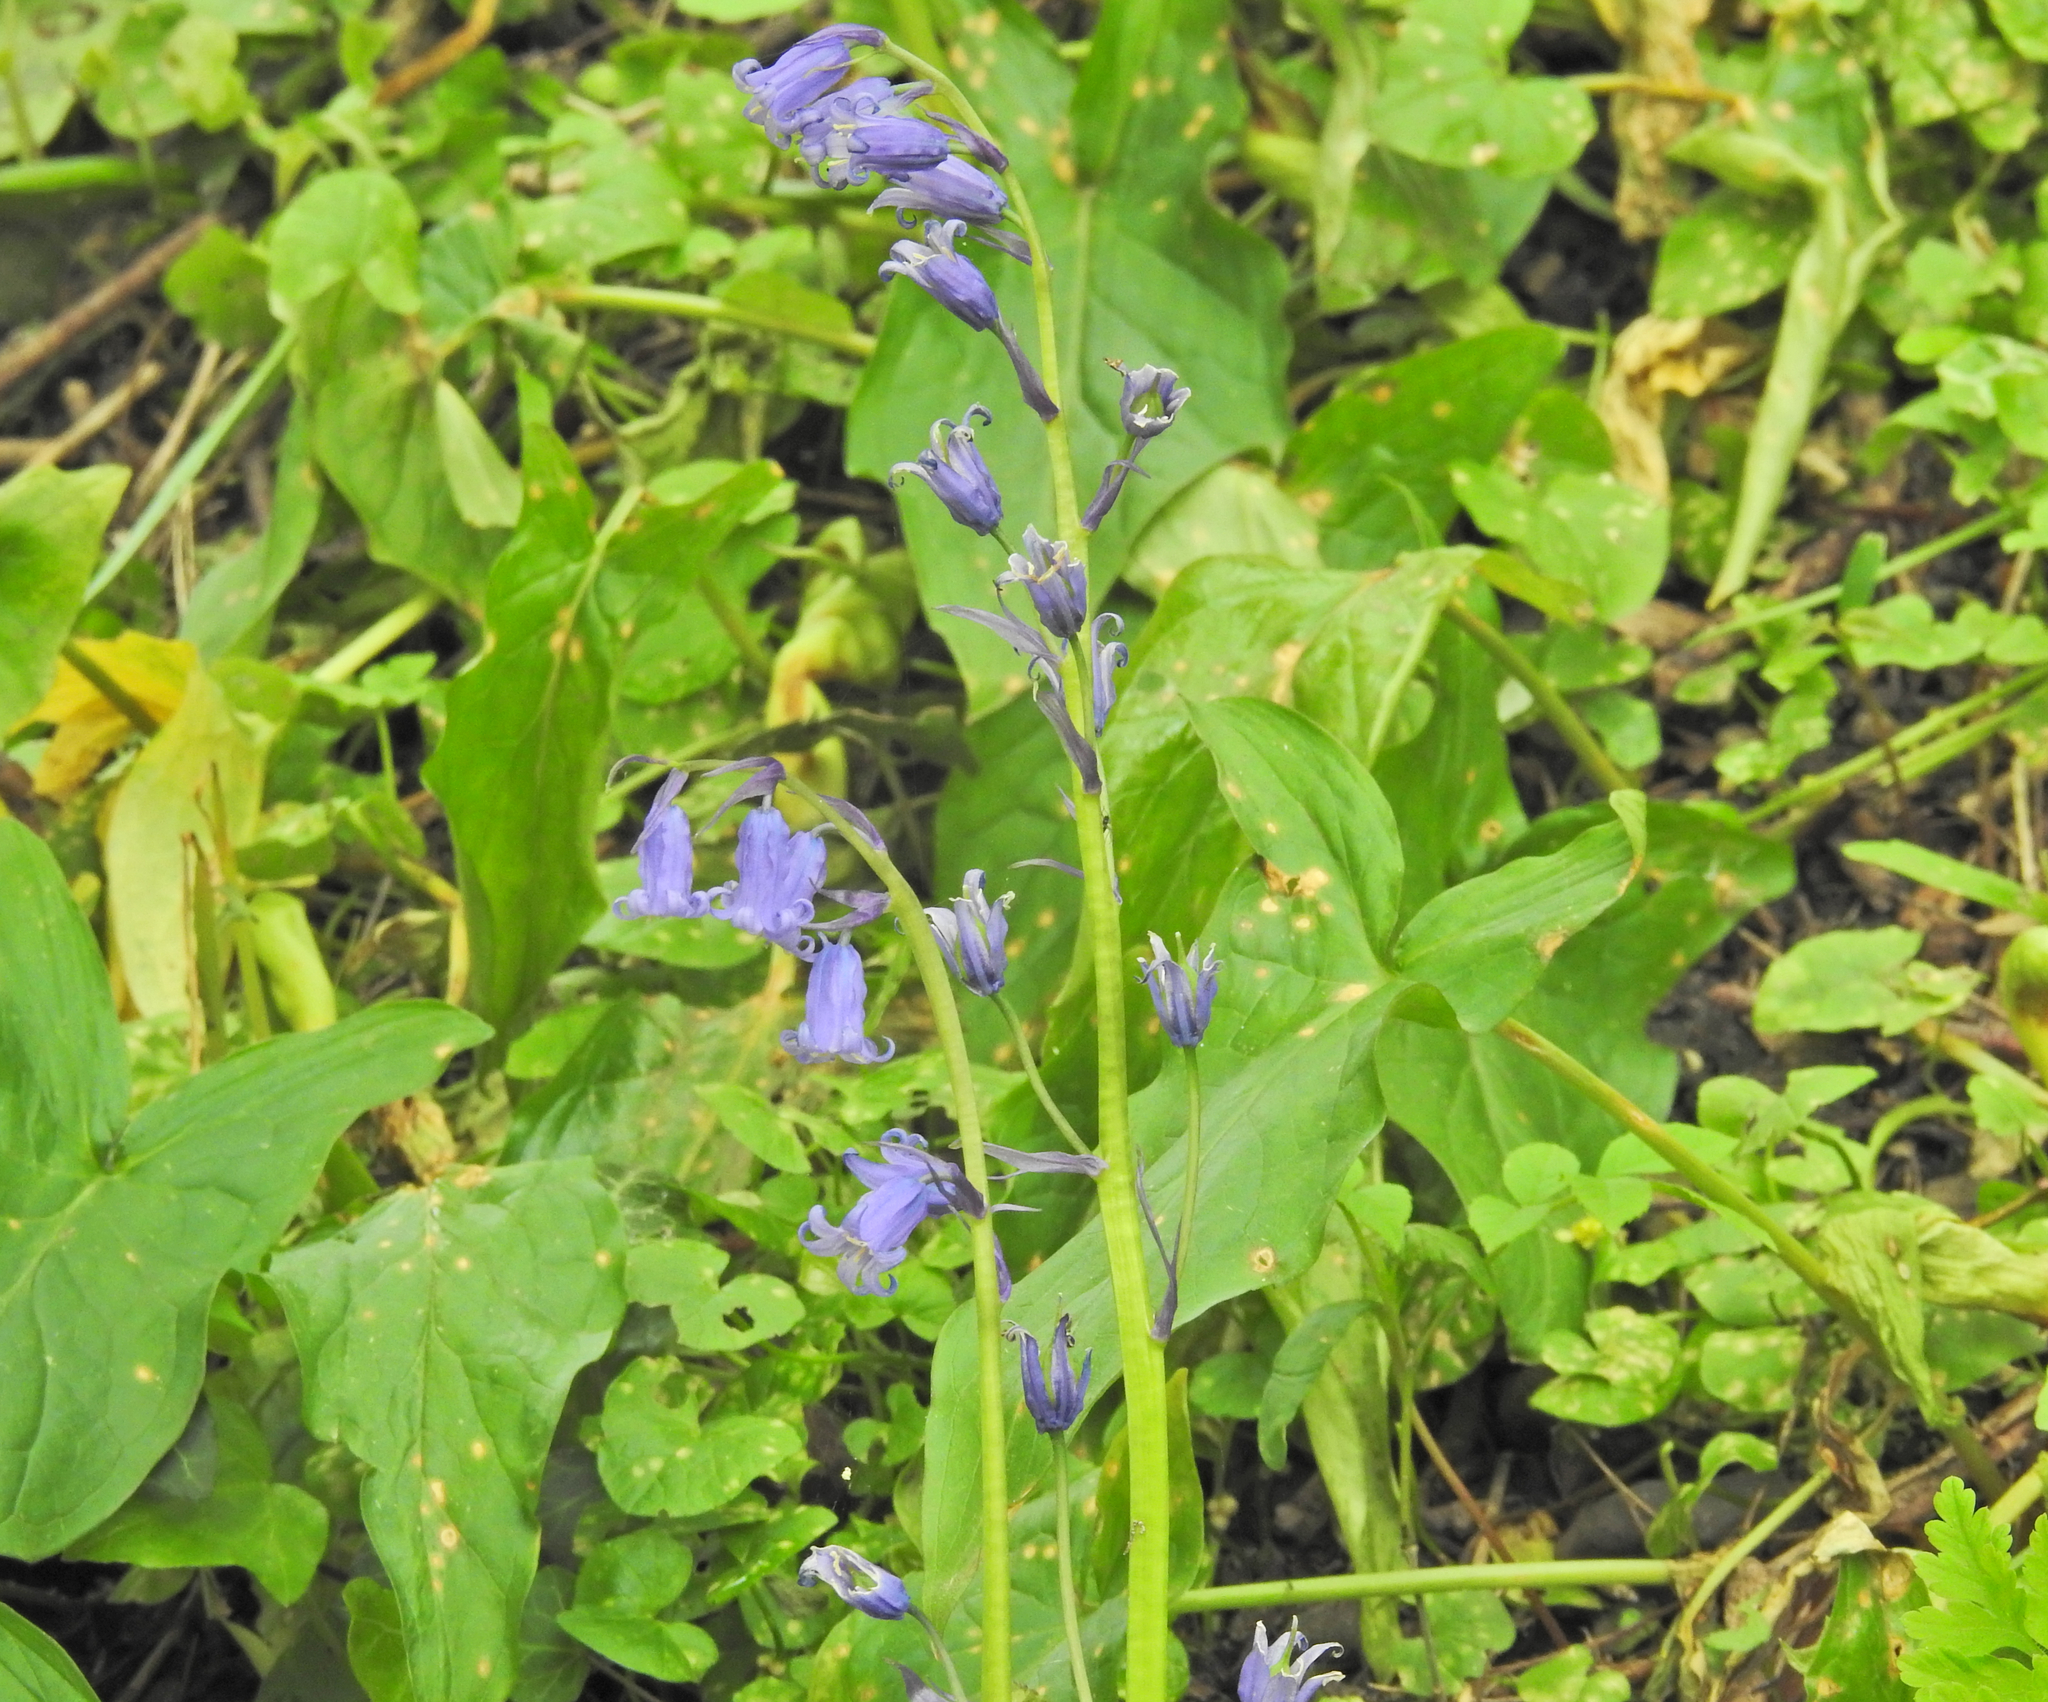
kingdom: Plantae
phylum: Tracheophyta
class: Liliopsida
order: Asparagales
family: Asparagaceae
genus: Hyacinthoides
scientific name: Hyacinthoides non-scripta
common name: Bluebell
